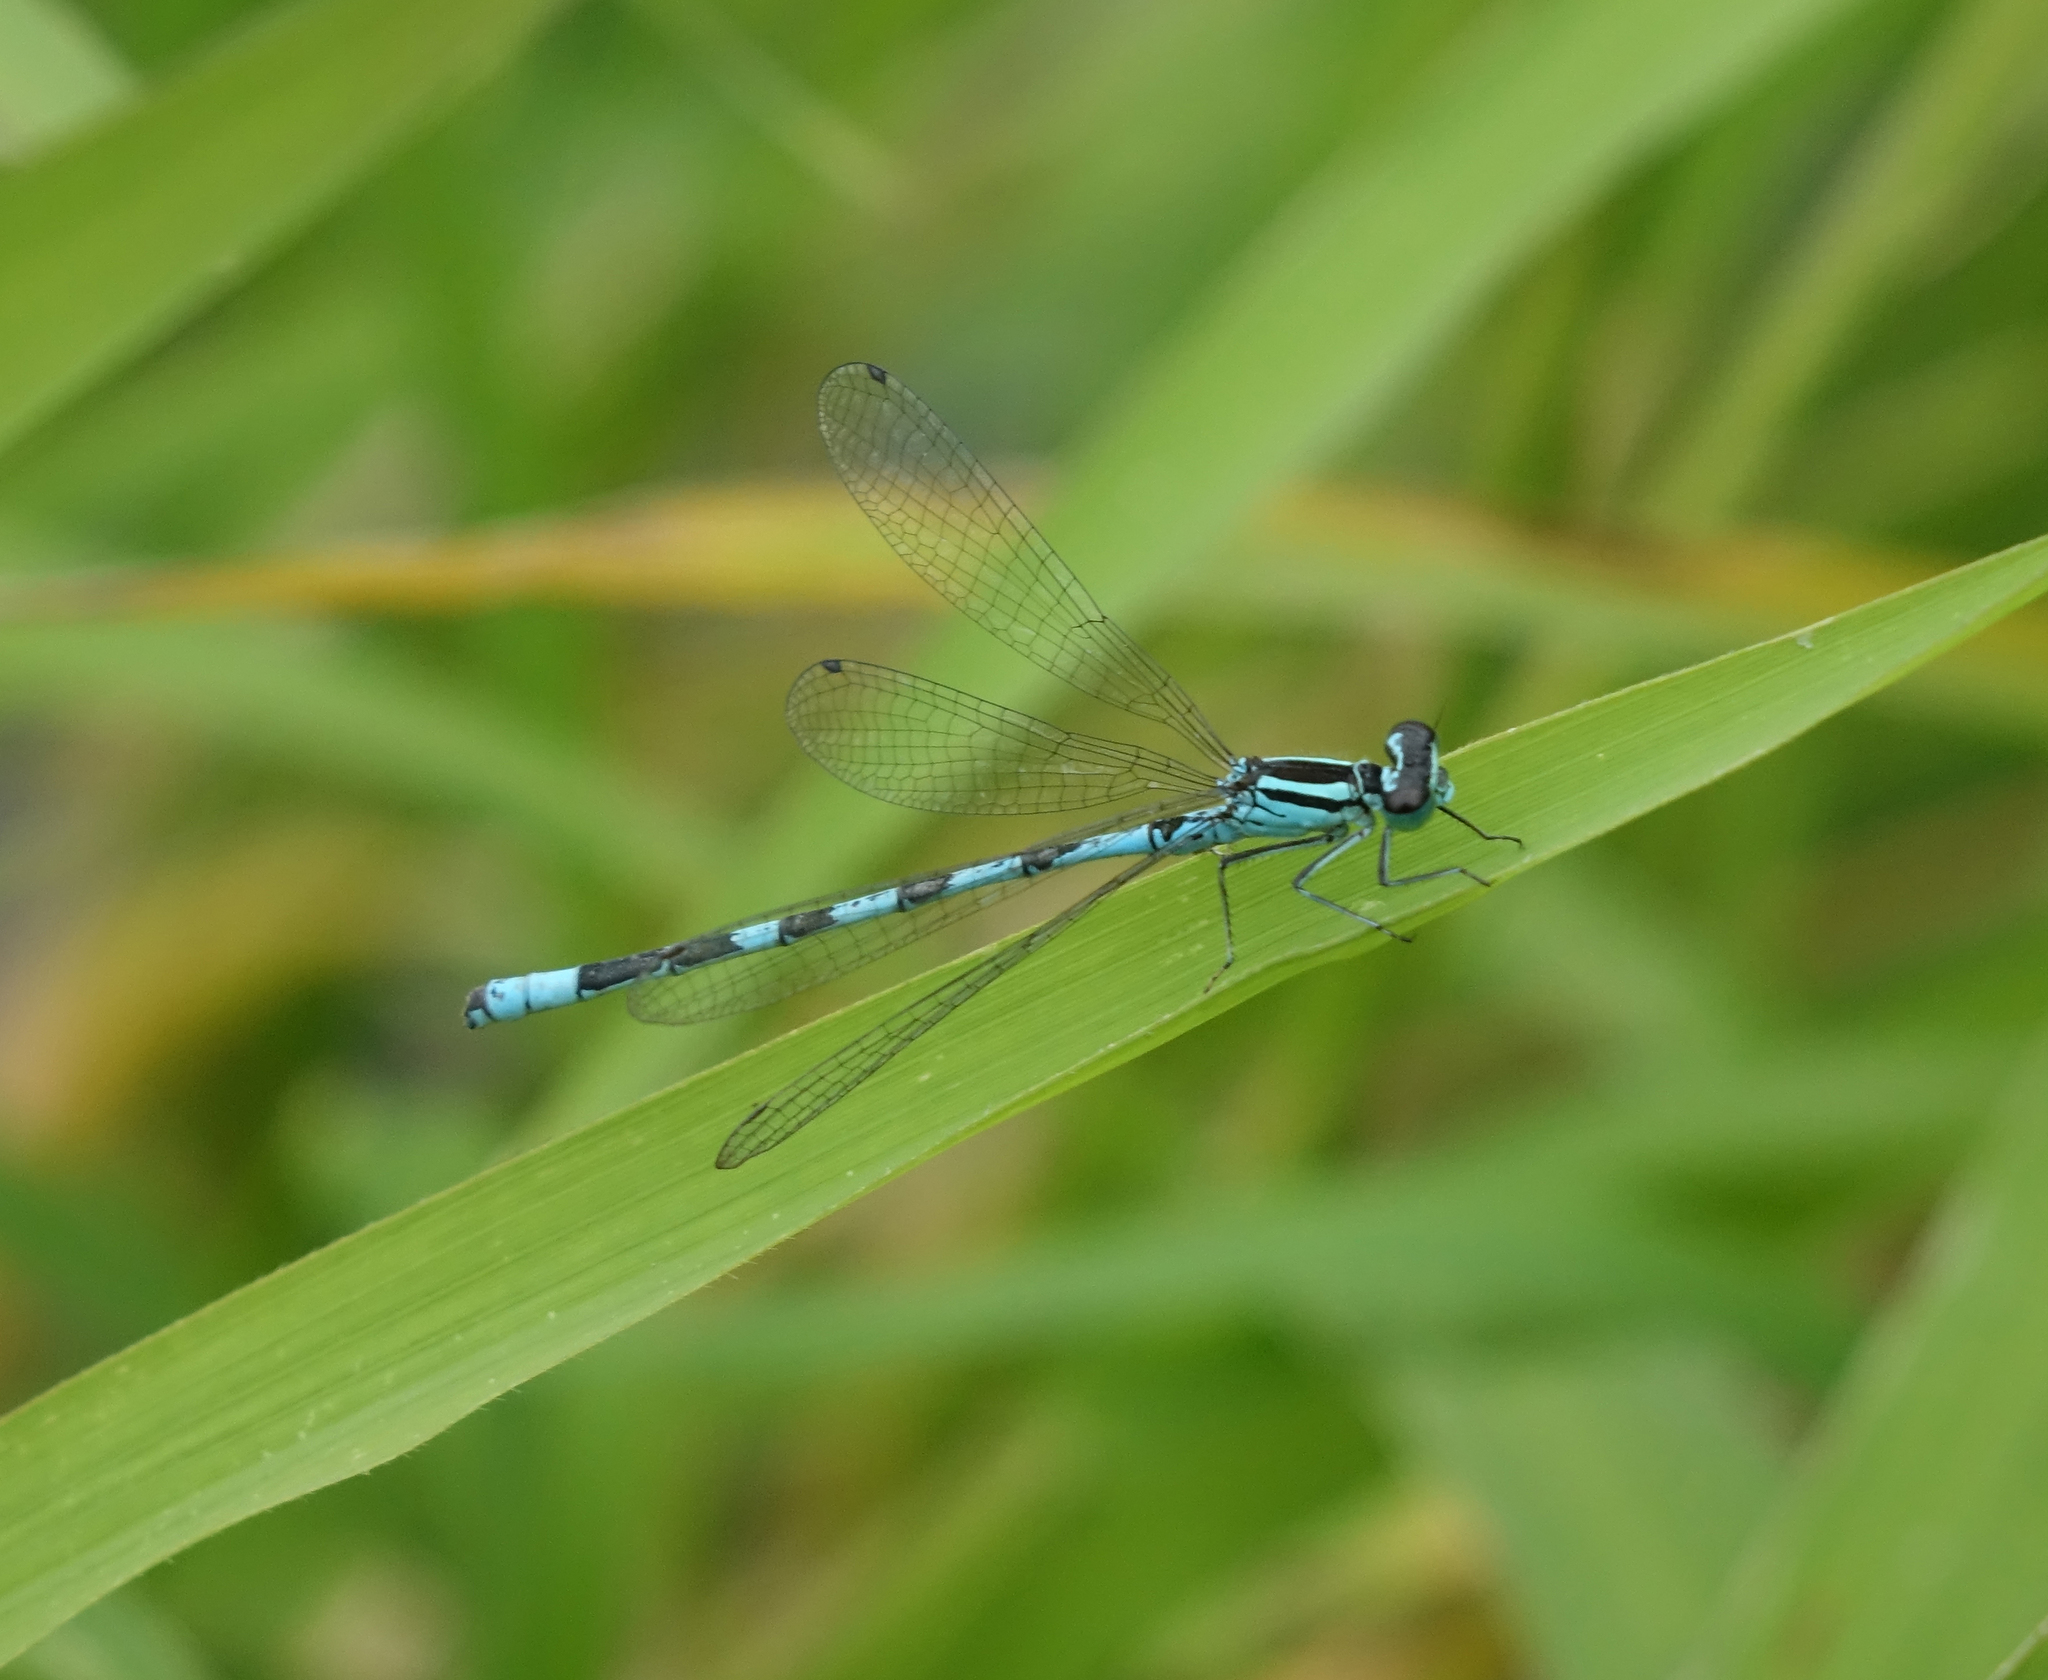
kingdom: Animalia
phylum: Arthropoda
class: Insecta
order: Odonata
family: Coenagrionidae
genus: Coenagrion
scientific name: Coenagrion hastulatum
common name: Spearhead bluet
